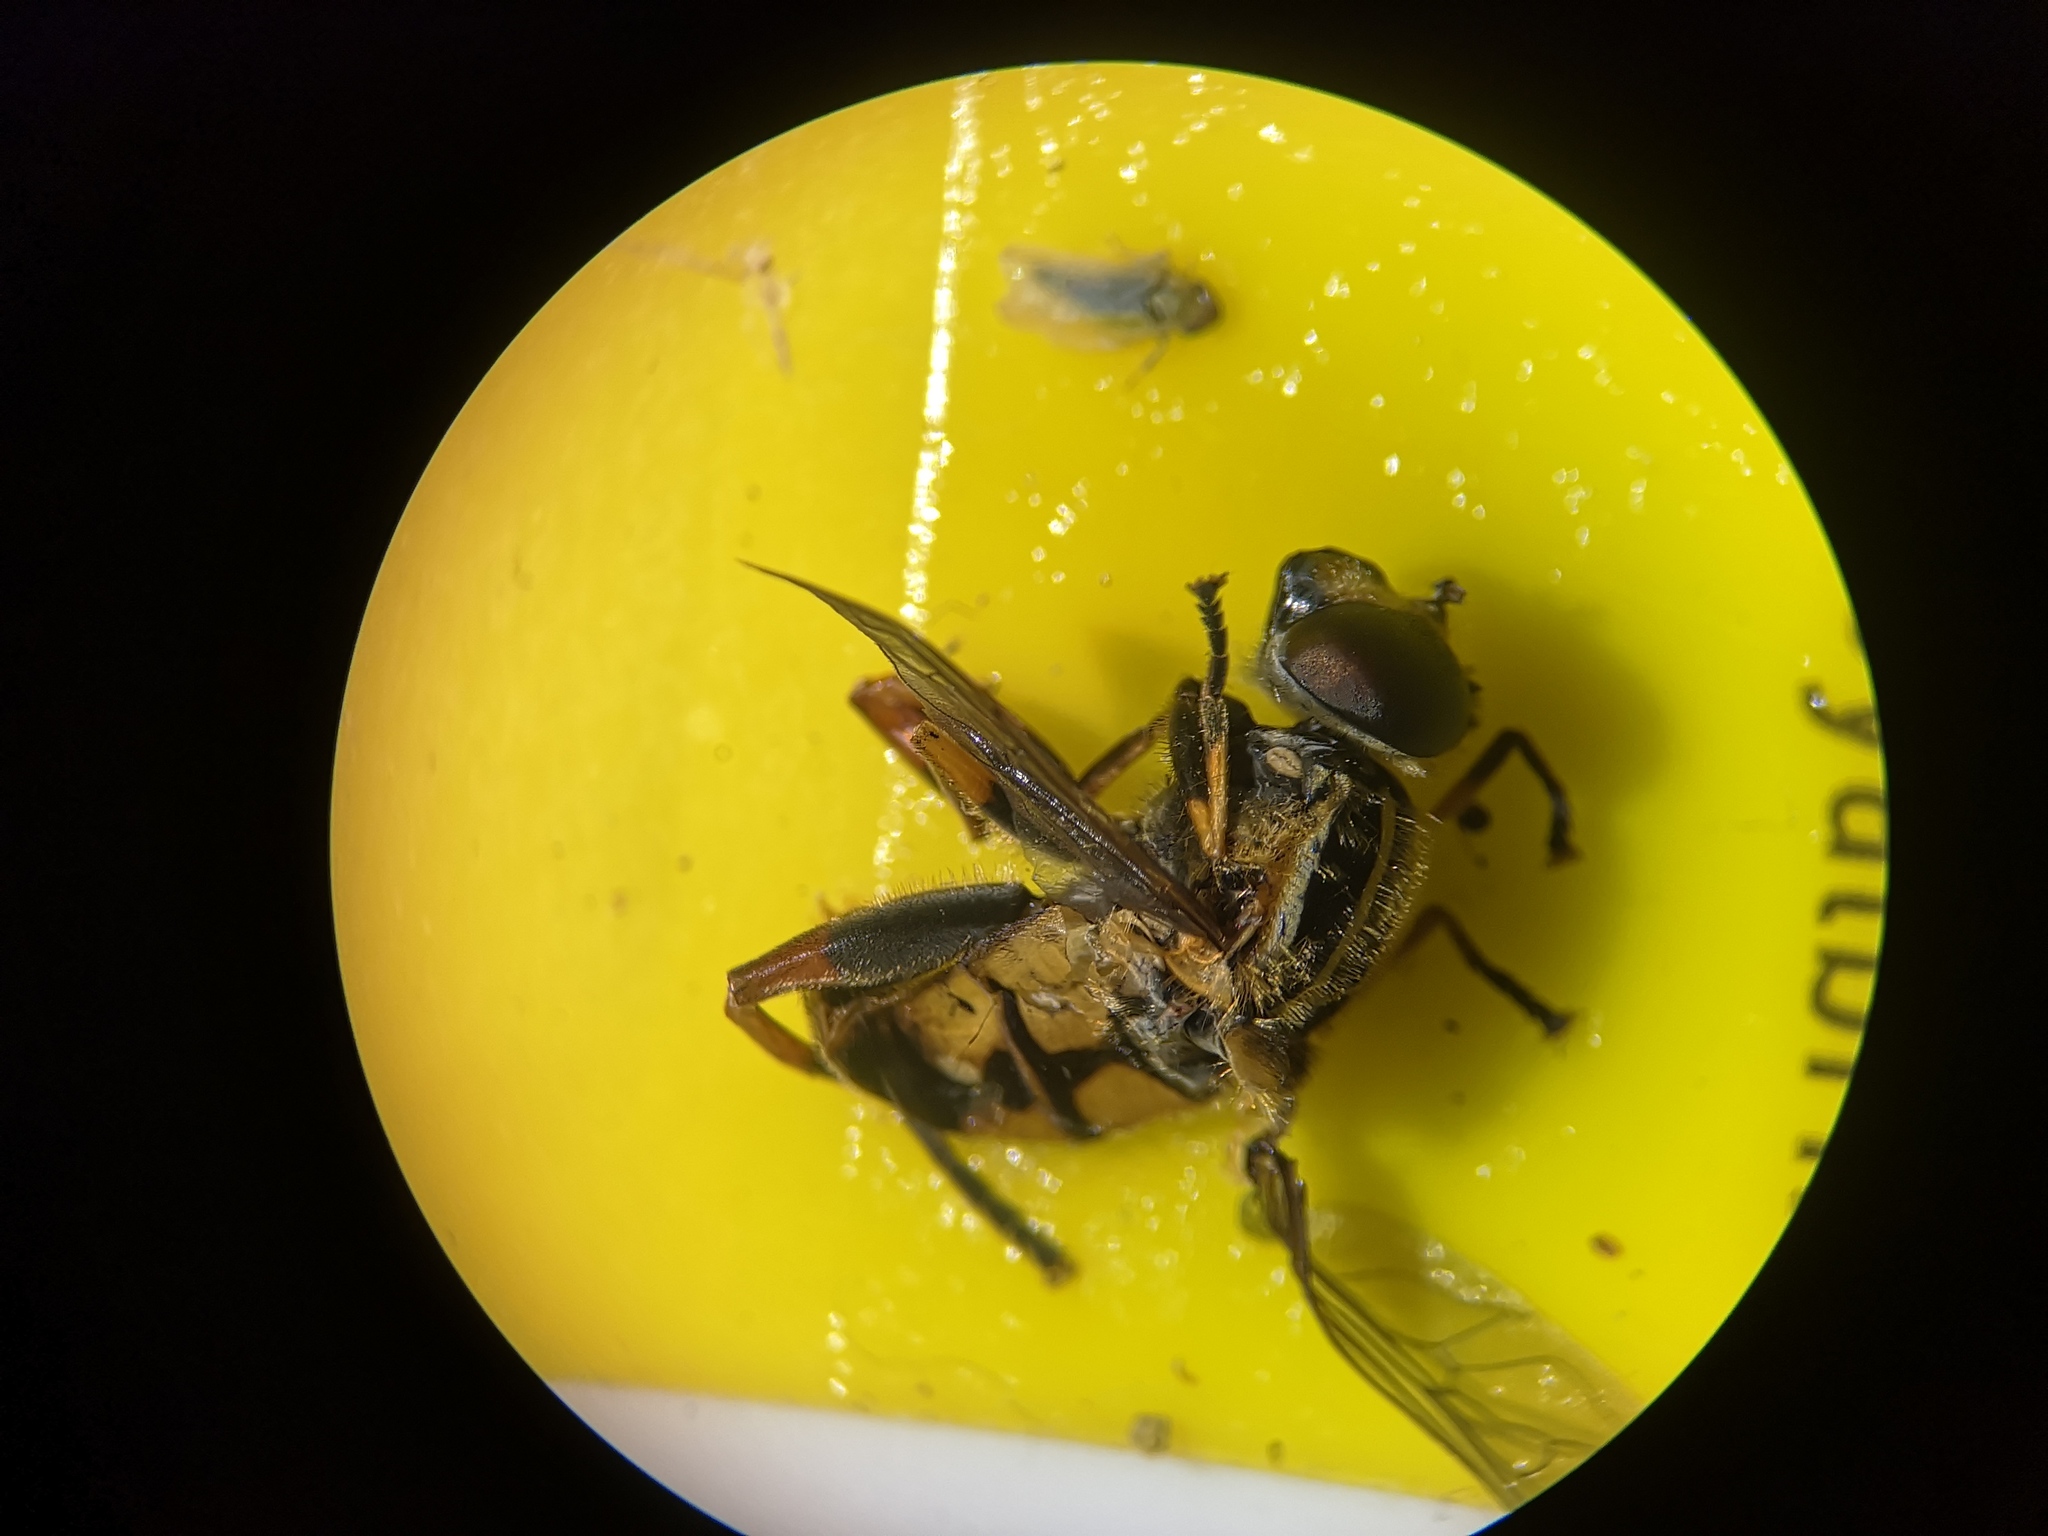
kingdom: Animalia
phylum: Arthropoda
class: Insecta
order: Diptera
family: Syrphidae
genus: Helophilus
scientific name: Helophilus pendulus
